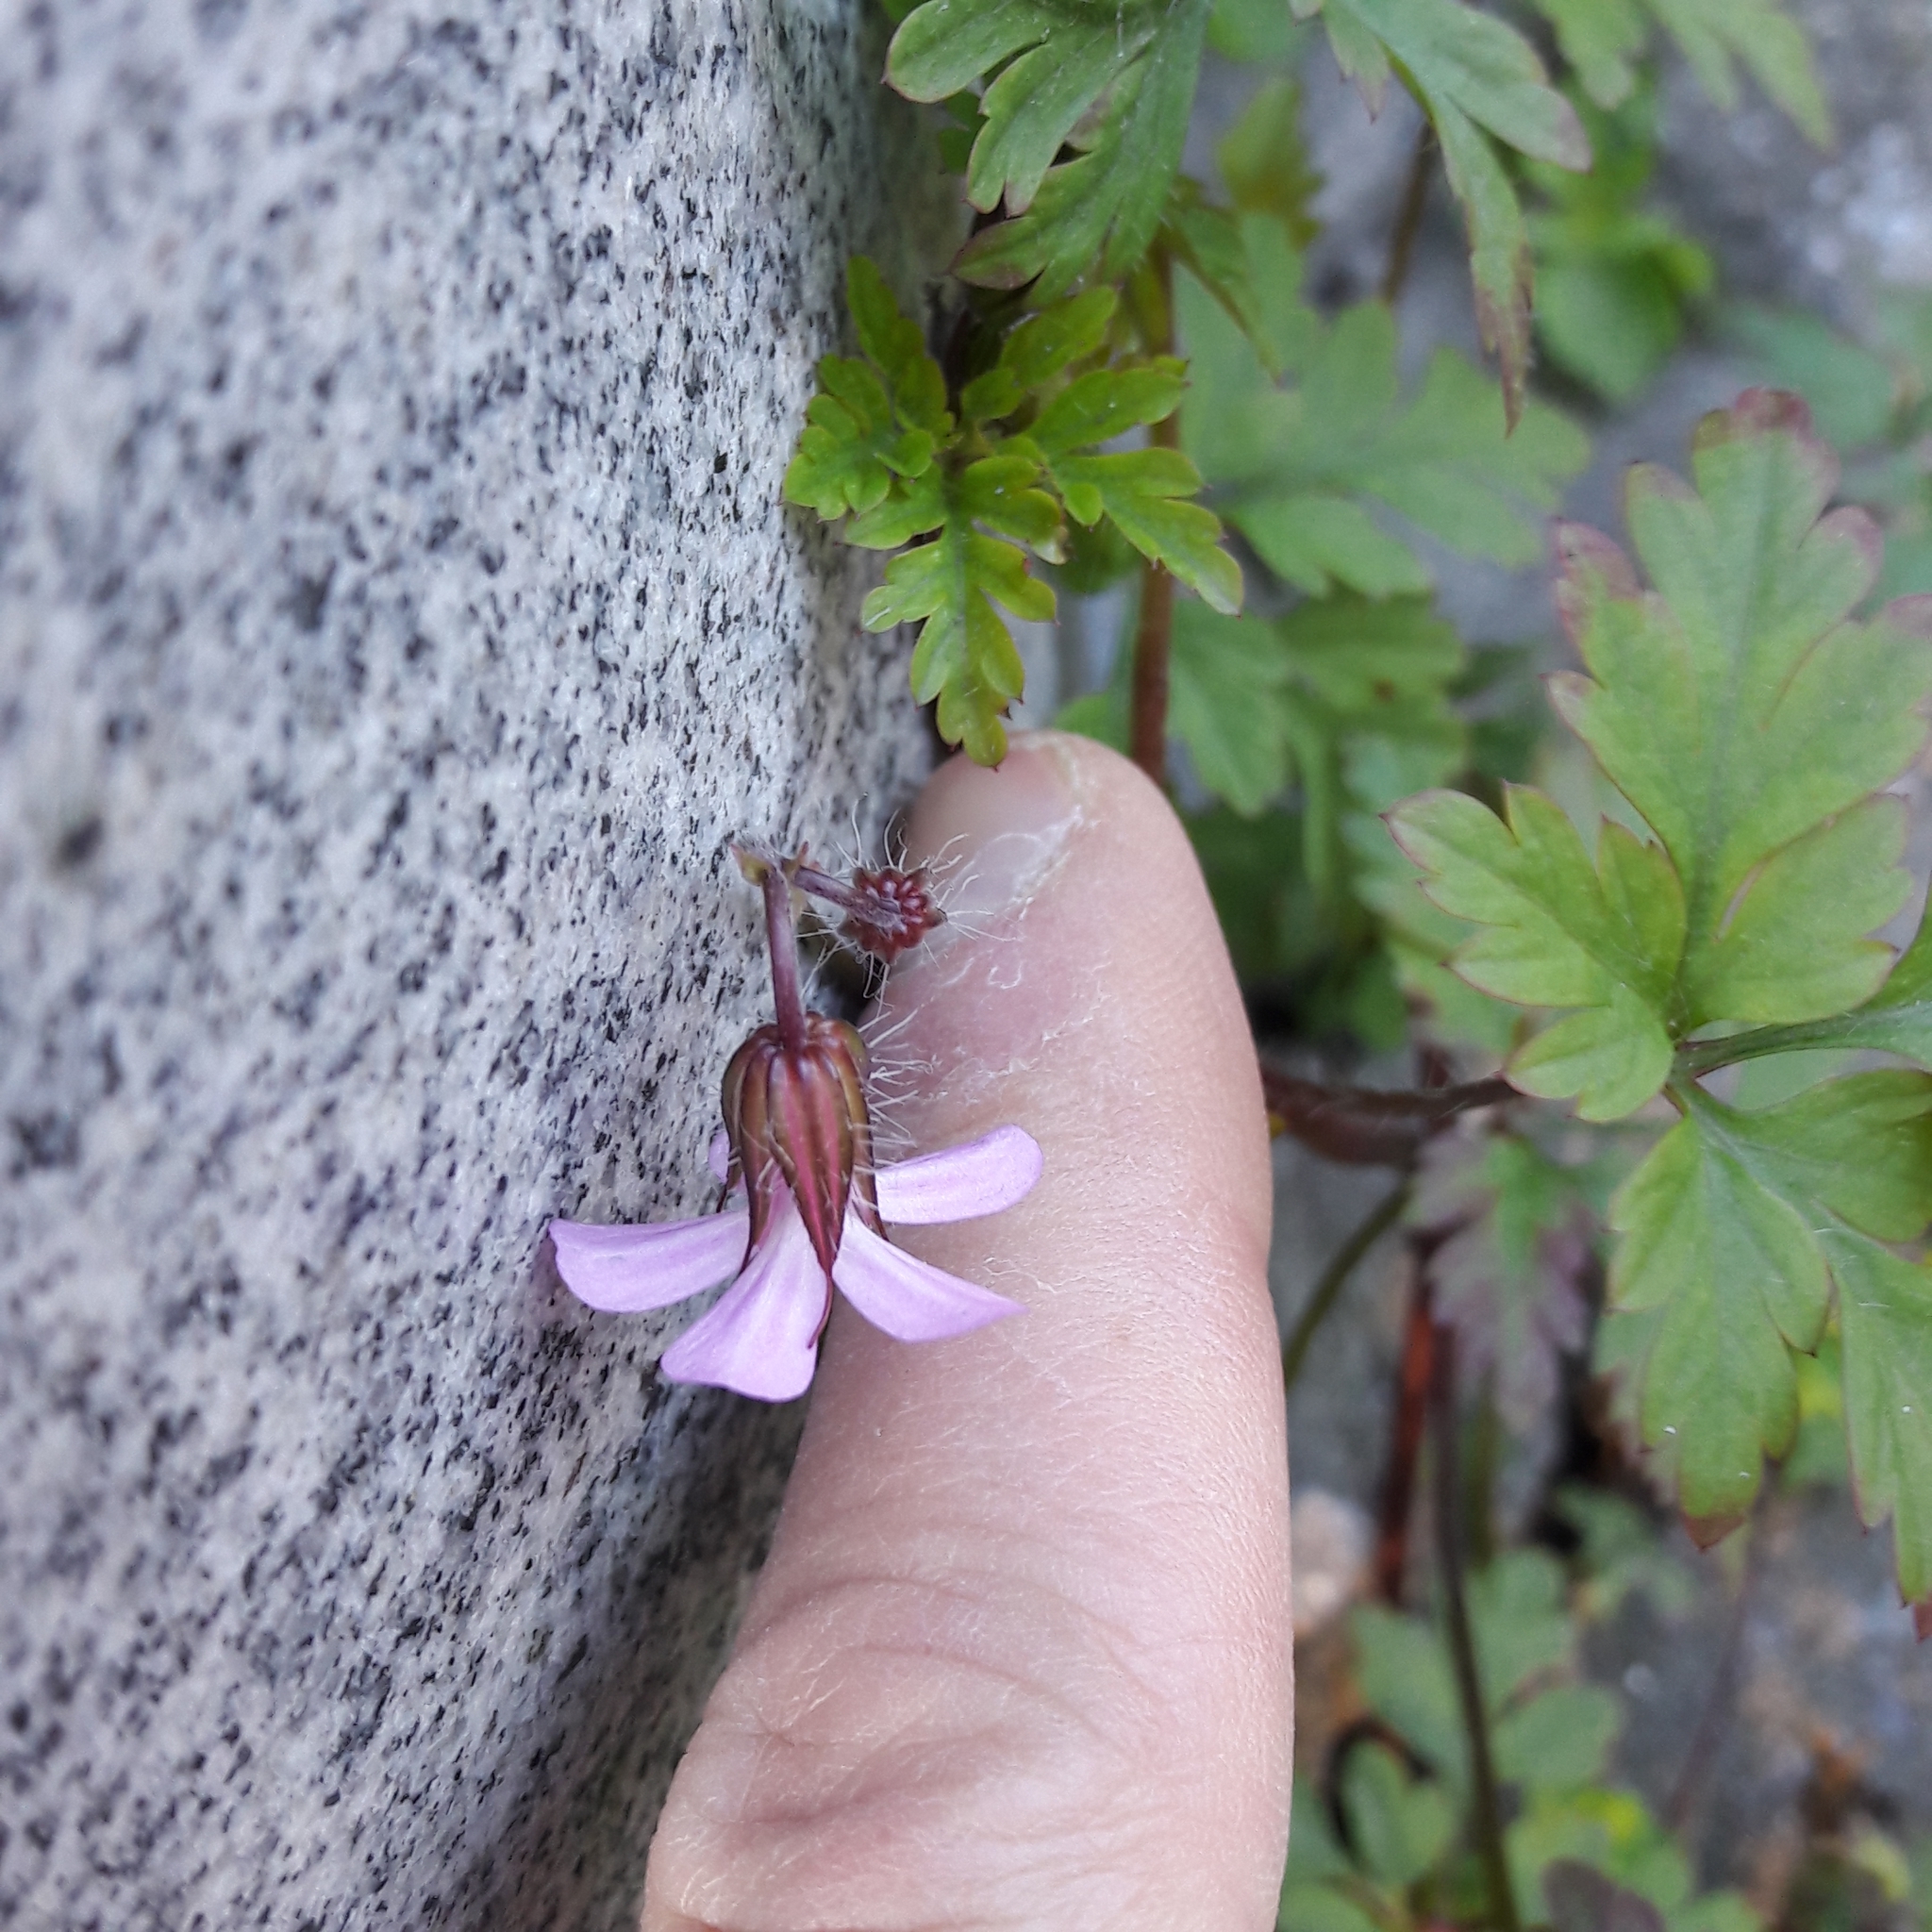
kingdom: Plantae
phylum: Tracheophyta
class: Magnoliopsida
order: Geraniales
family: Geraniaceae
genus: Geranium
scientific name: Geranium robertianum
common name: Herb-robert
